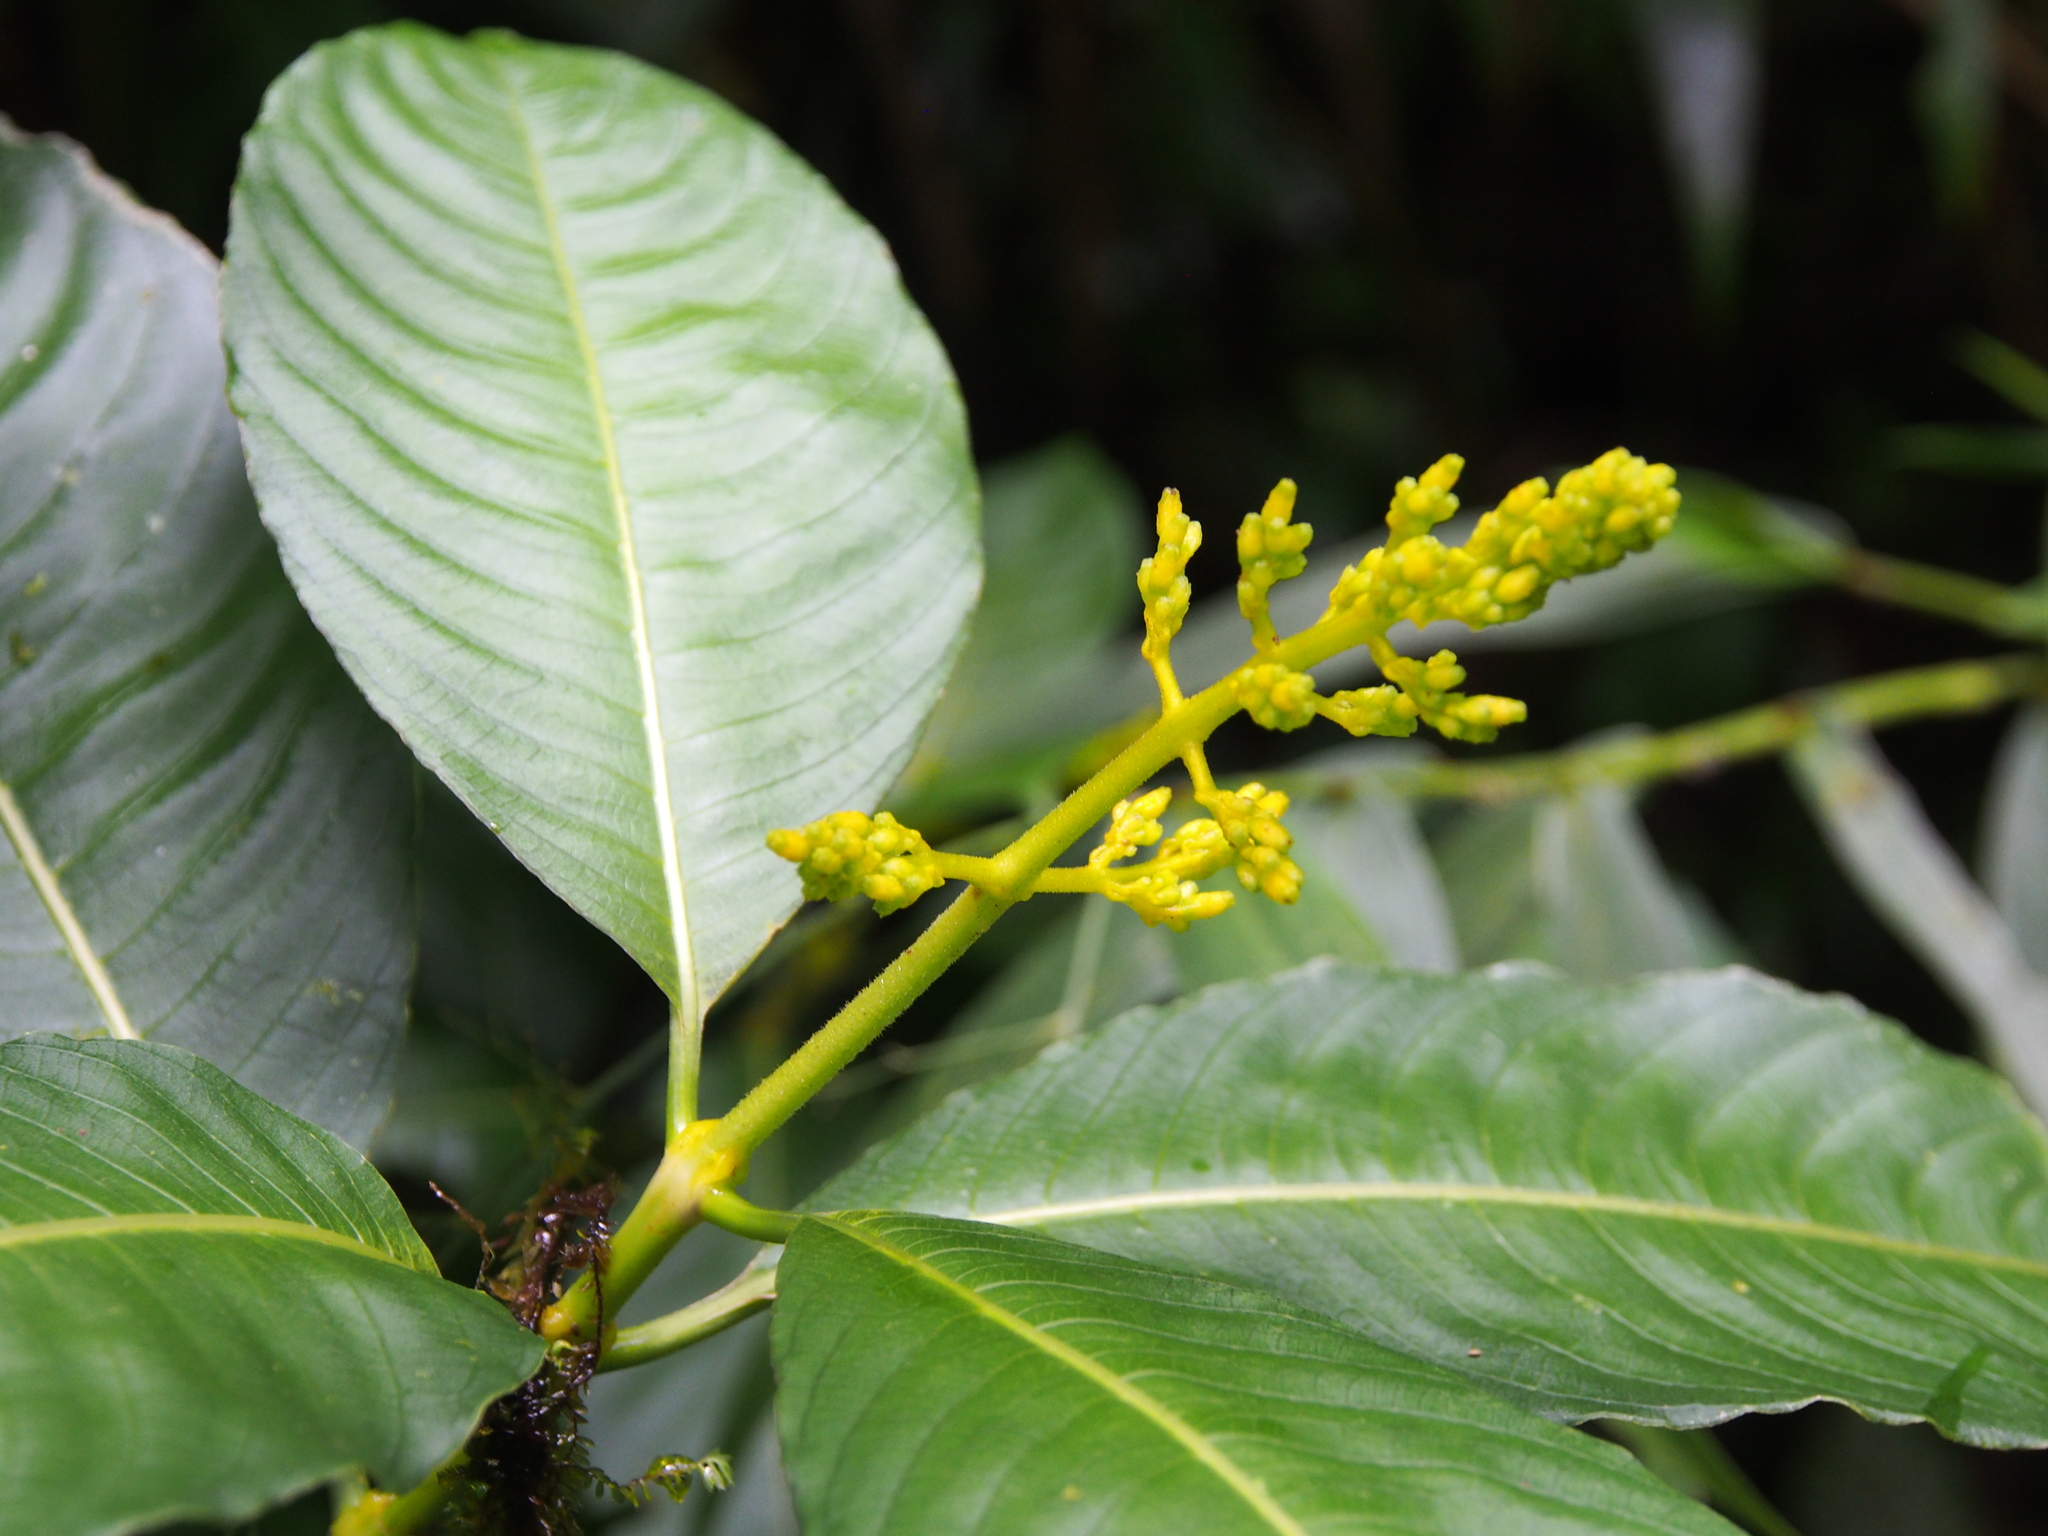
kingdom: Plantae
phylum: Tracheophyta
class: Magnoliopsida
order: Gentianales
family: Rubiaceae
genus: Palicourea
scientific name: Palicourea lasiorrhachis
